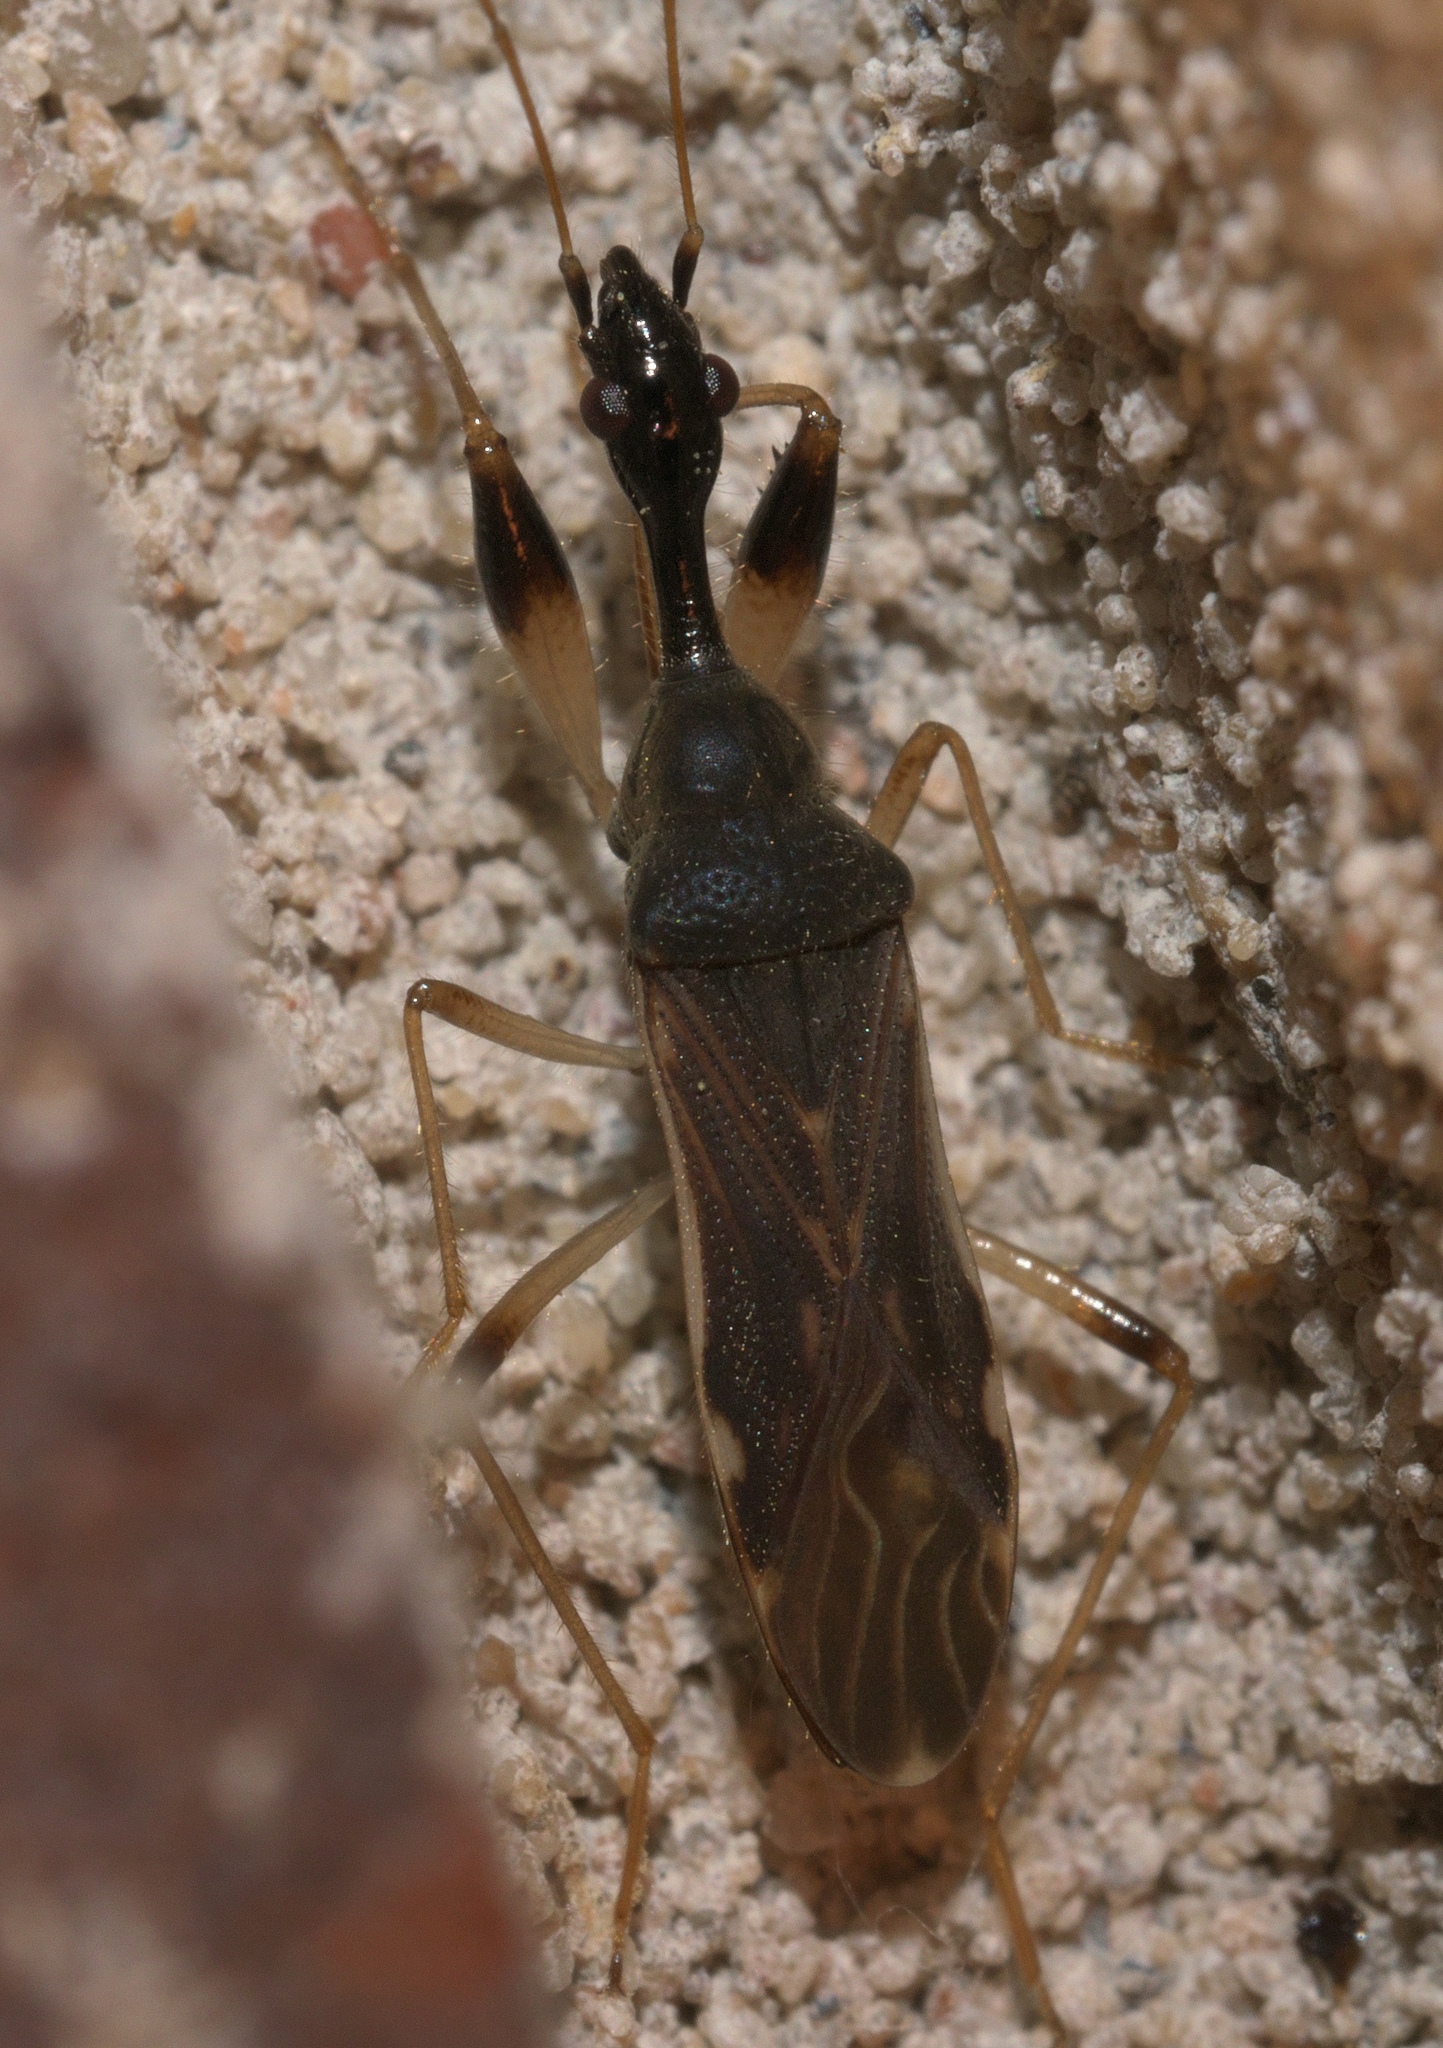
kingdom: Animalia
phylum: Arthropoda
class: Insecta
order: Hemiptera
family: Rhyparochromidae
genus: Myodocha
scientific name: Myodocha serripes
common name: Long-necked seed bug
